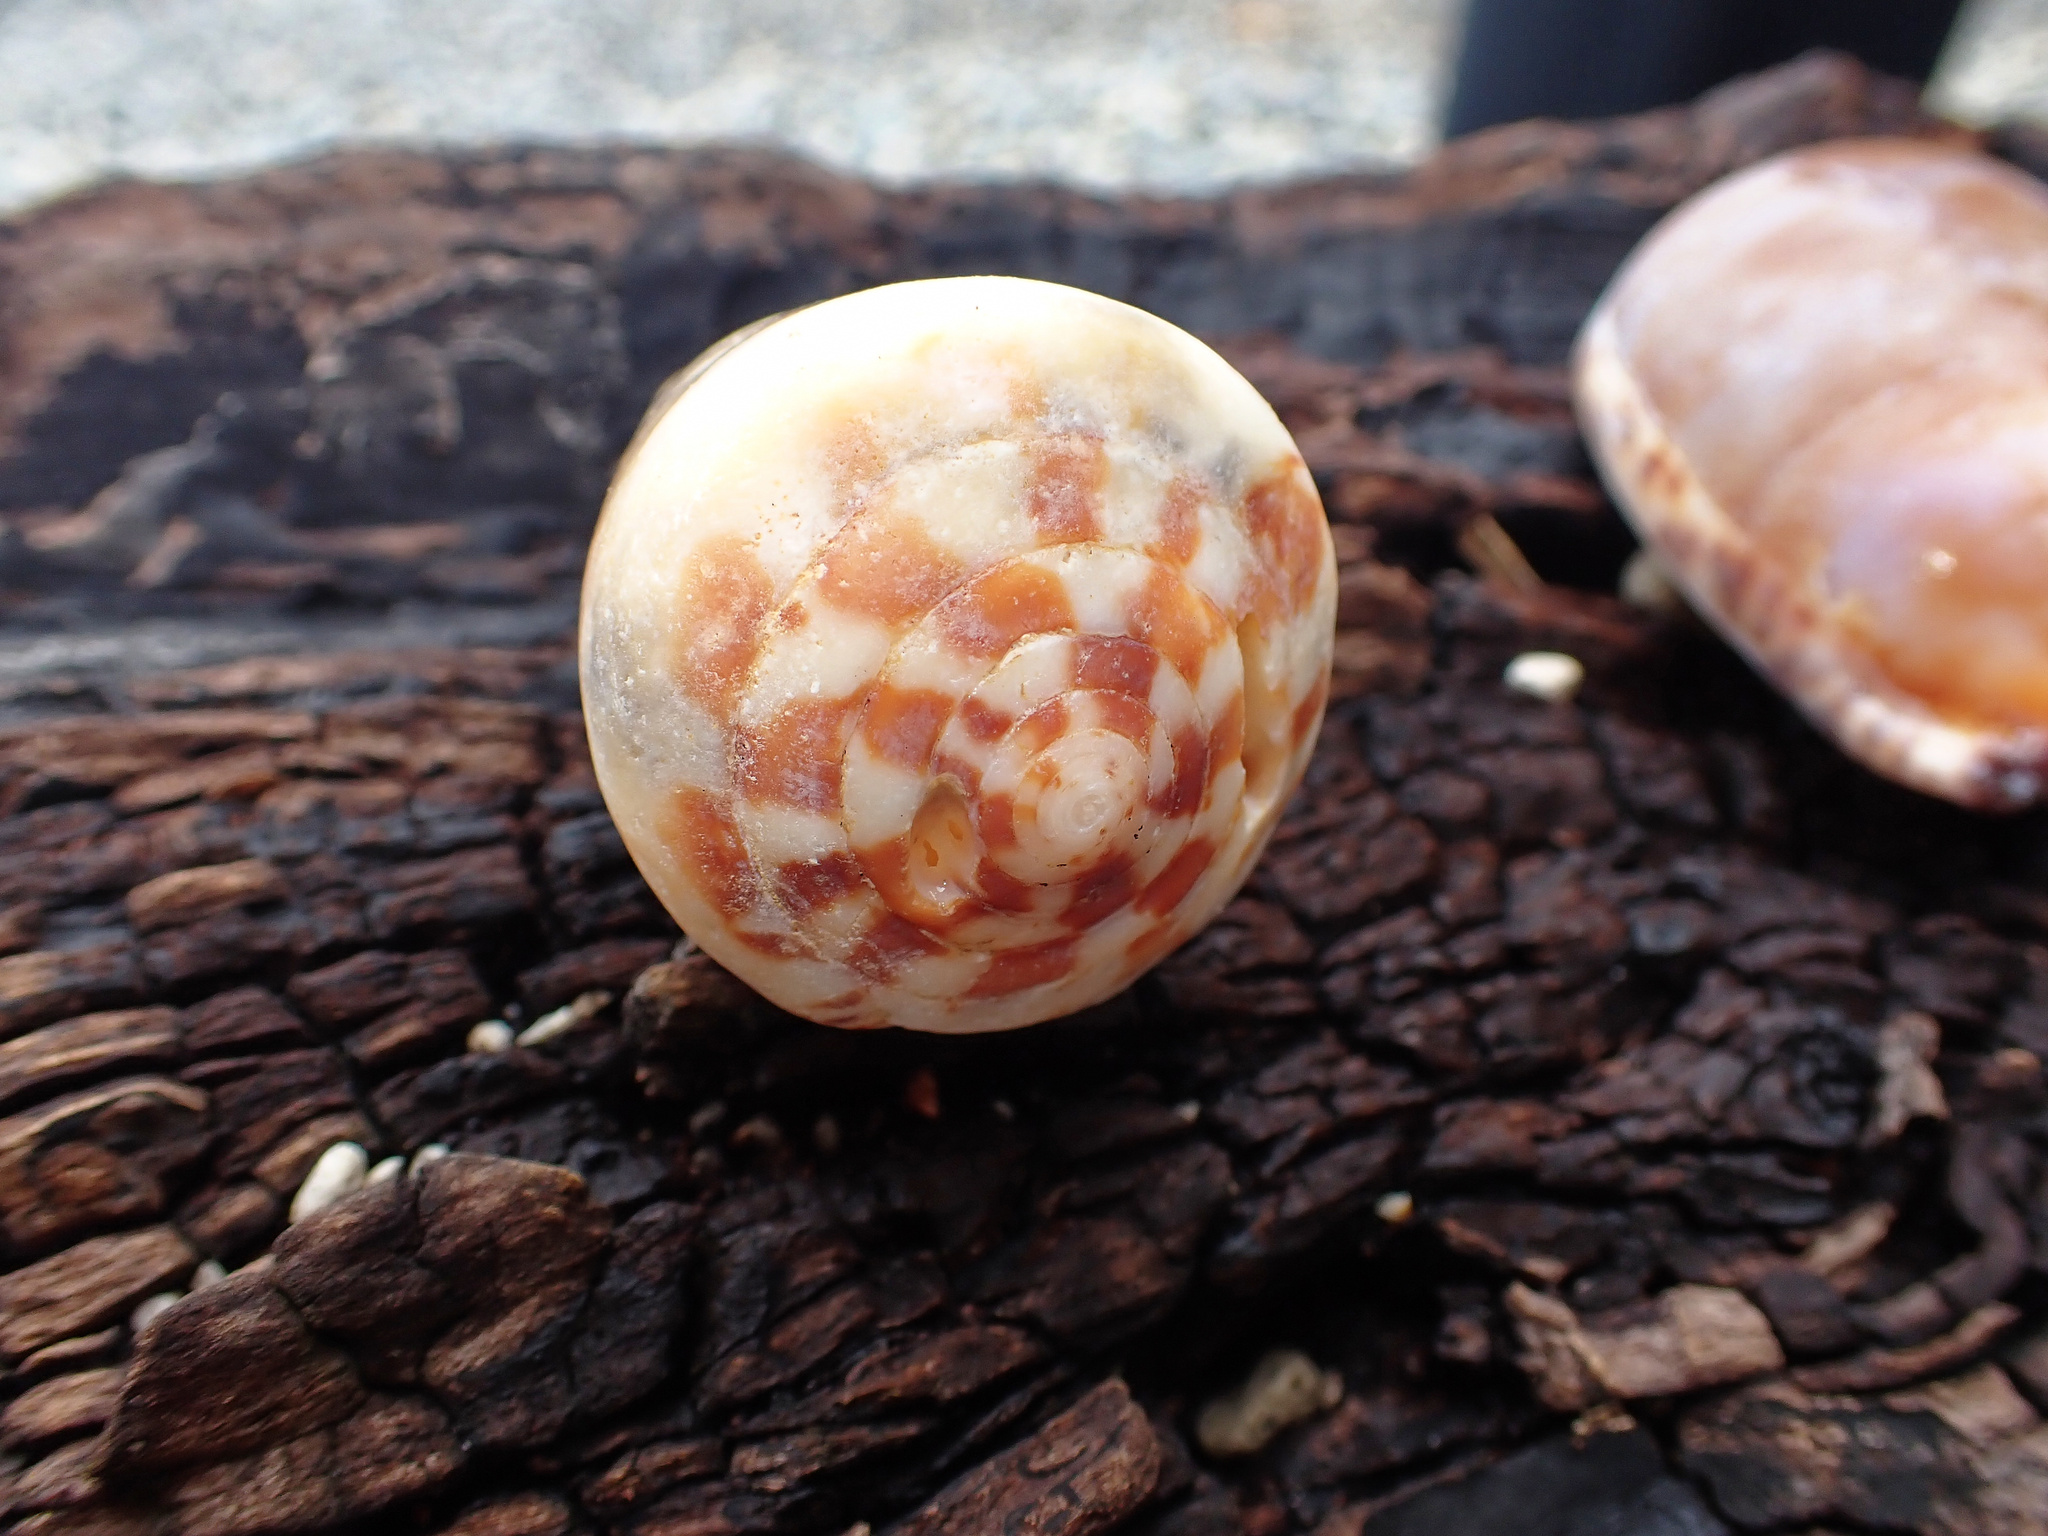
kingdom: Animalia
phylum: Mollusca
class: Gastropoda
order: Neogastropoda
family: Conidae
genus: Conus
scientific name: Conus vexillum
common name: Flag cone
